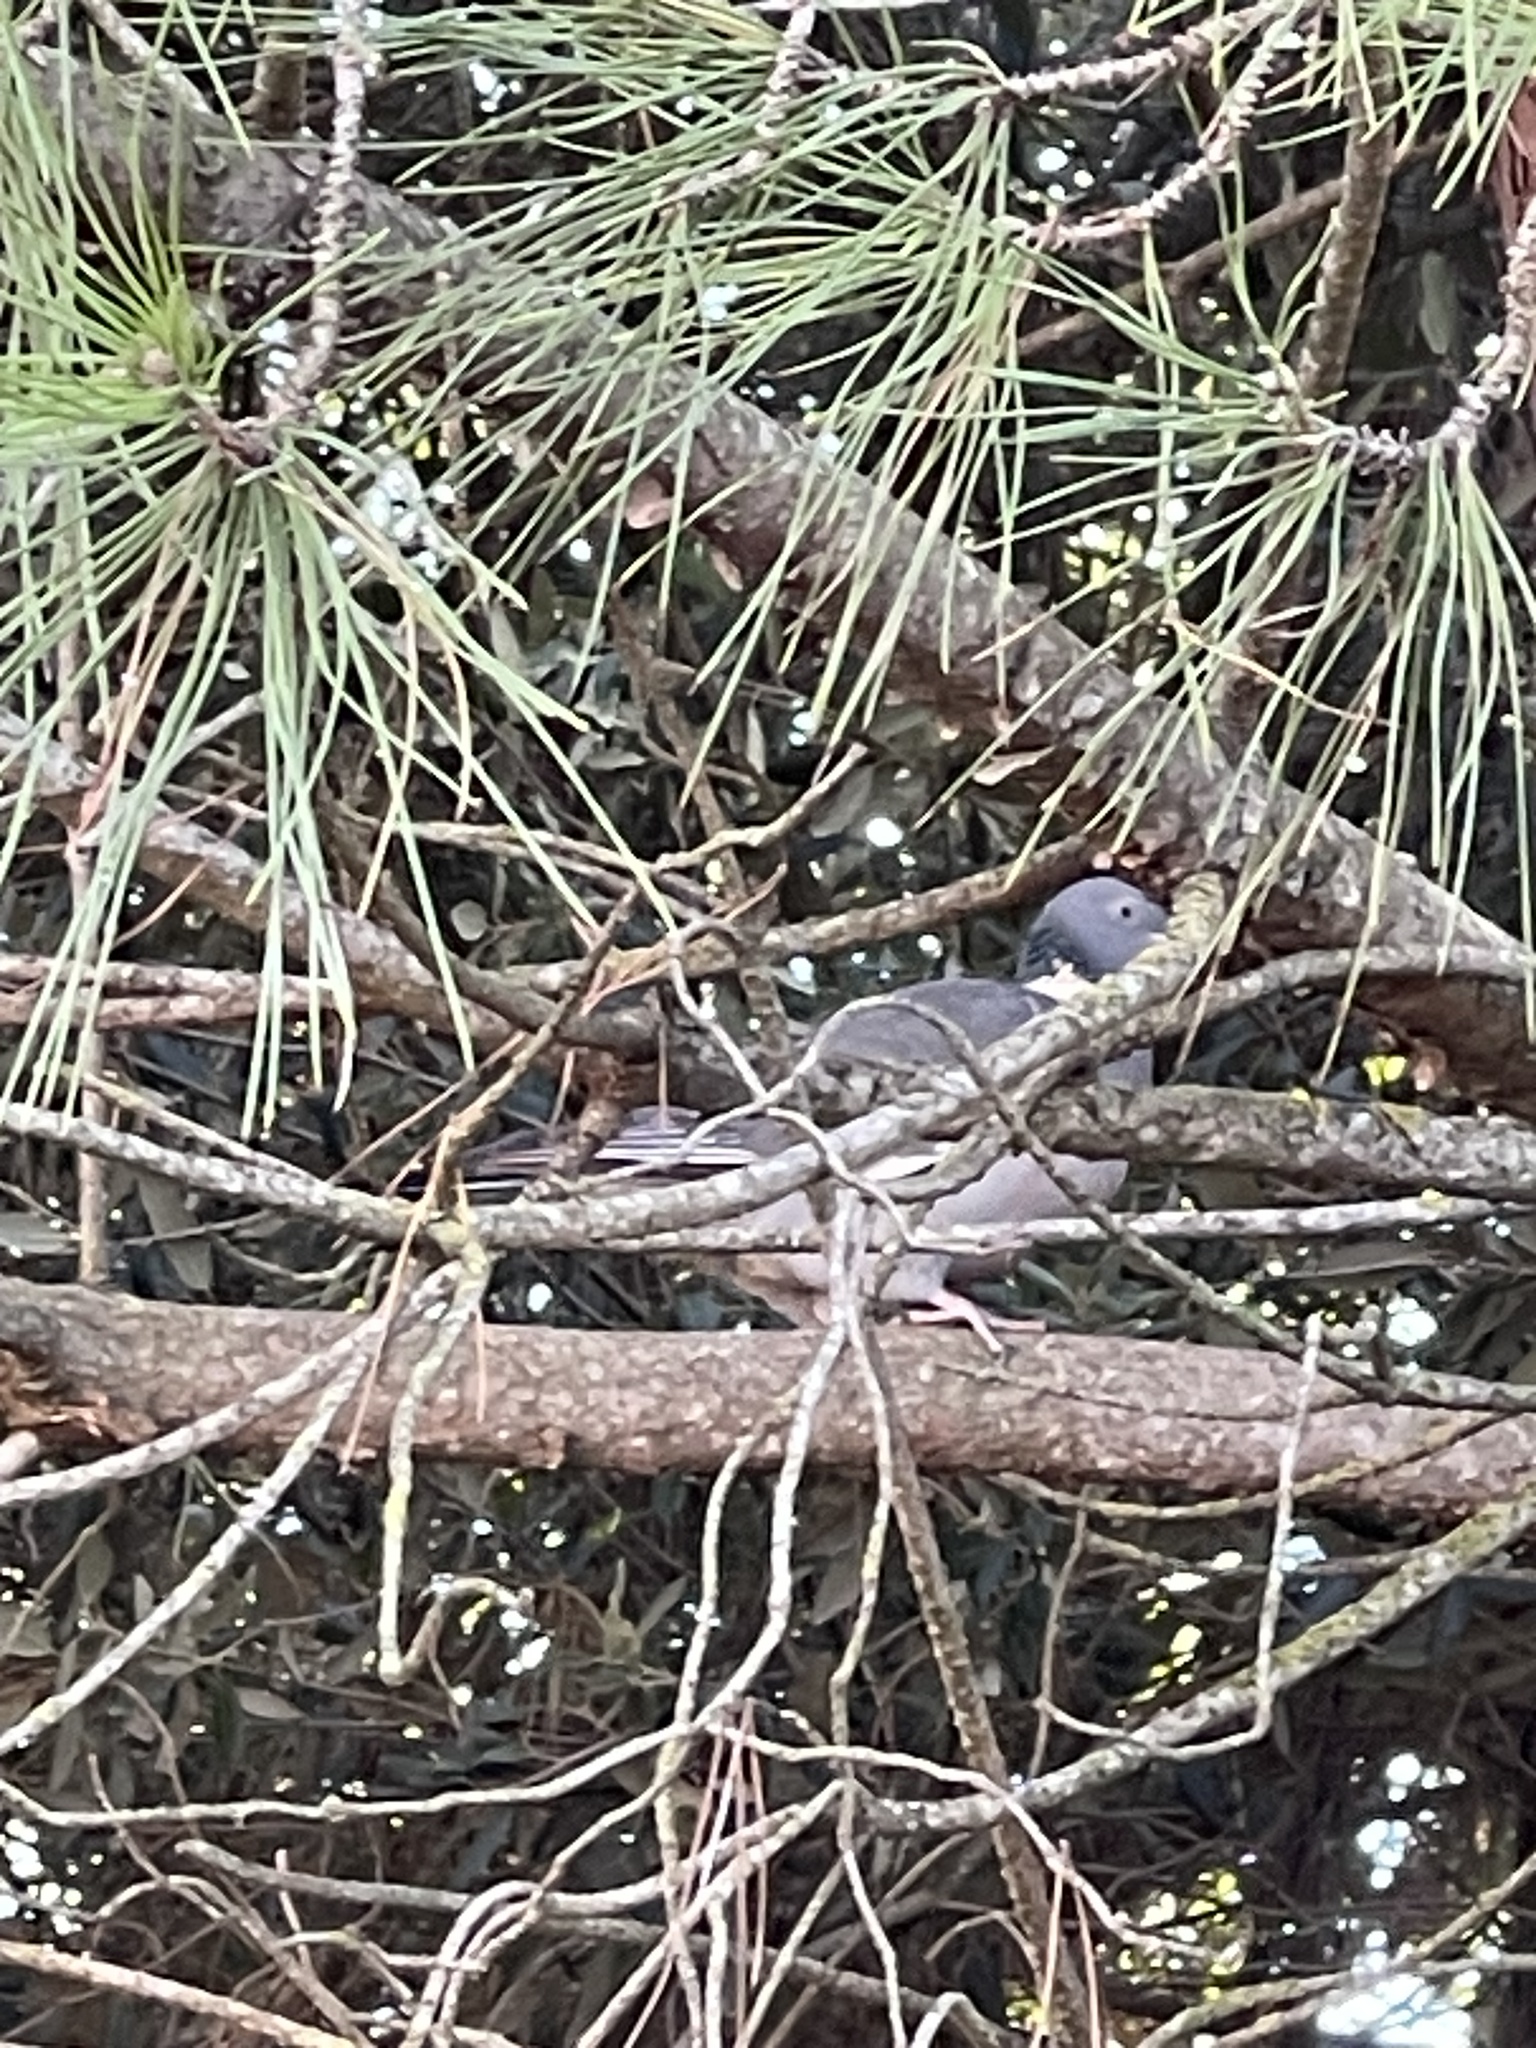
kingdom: Animalia
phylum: Chordata
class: Aves
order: Columbiformes
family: Columbidae
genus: Columba
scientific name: Columba palumbus
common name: Common wood pigeon
